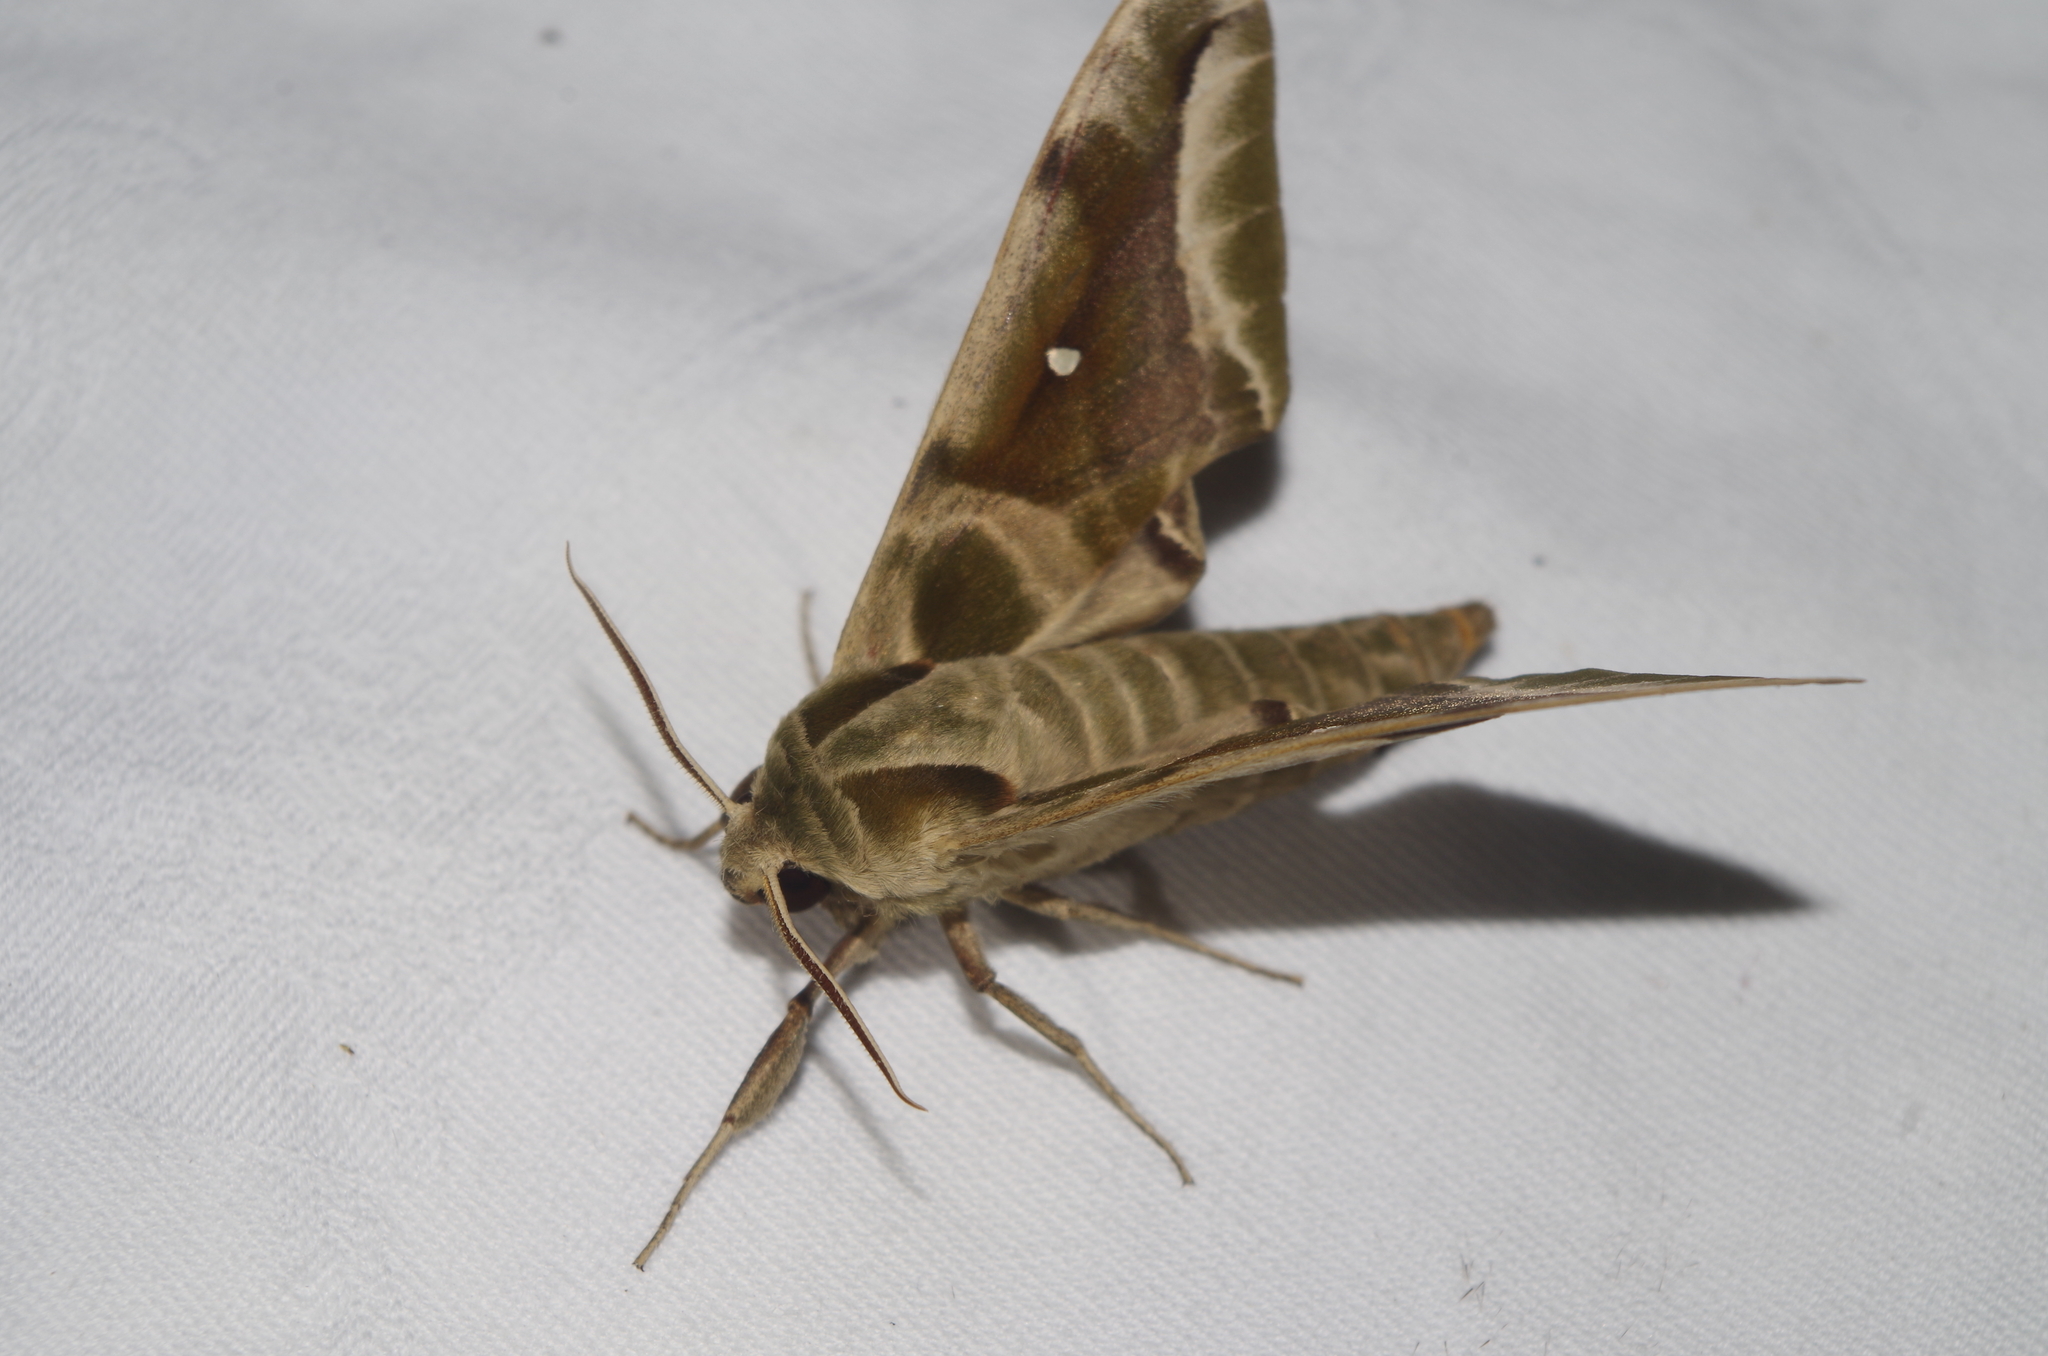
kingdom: Animalia
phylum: Arthropoda
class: Insecta
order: Lepidoptera
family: Sphingidae
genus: Parum
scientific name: Parum colligata
